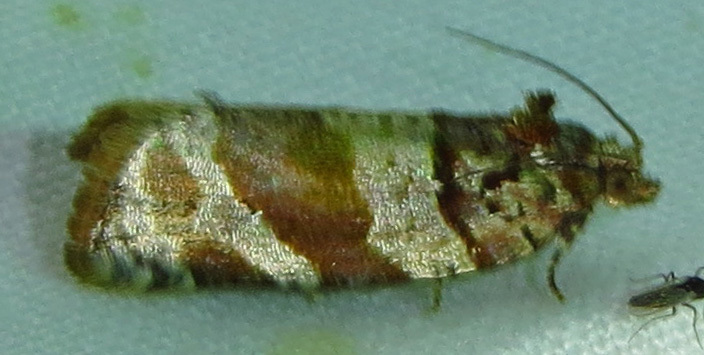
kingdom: Animalia
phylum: Arthropoda
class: Insecta
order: Lepidoptera
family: Tortricidae
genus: Argyrotaenia
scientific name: Argyrotaenia kimballi
